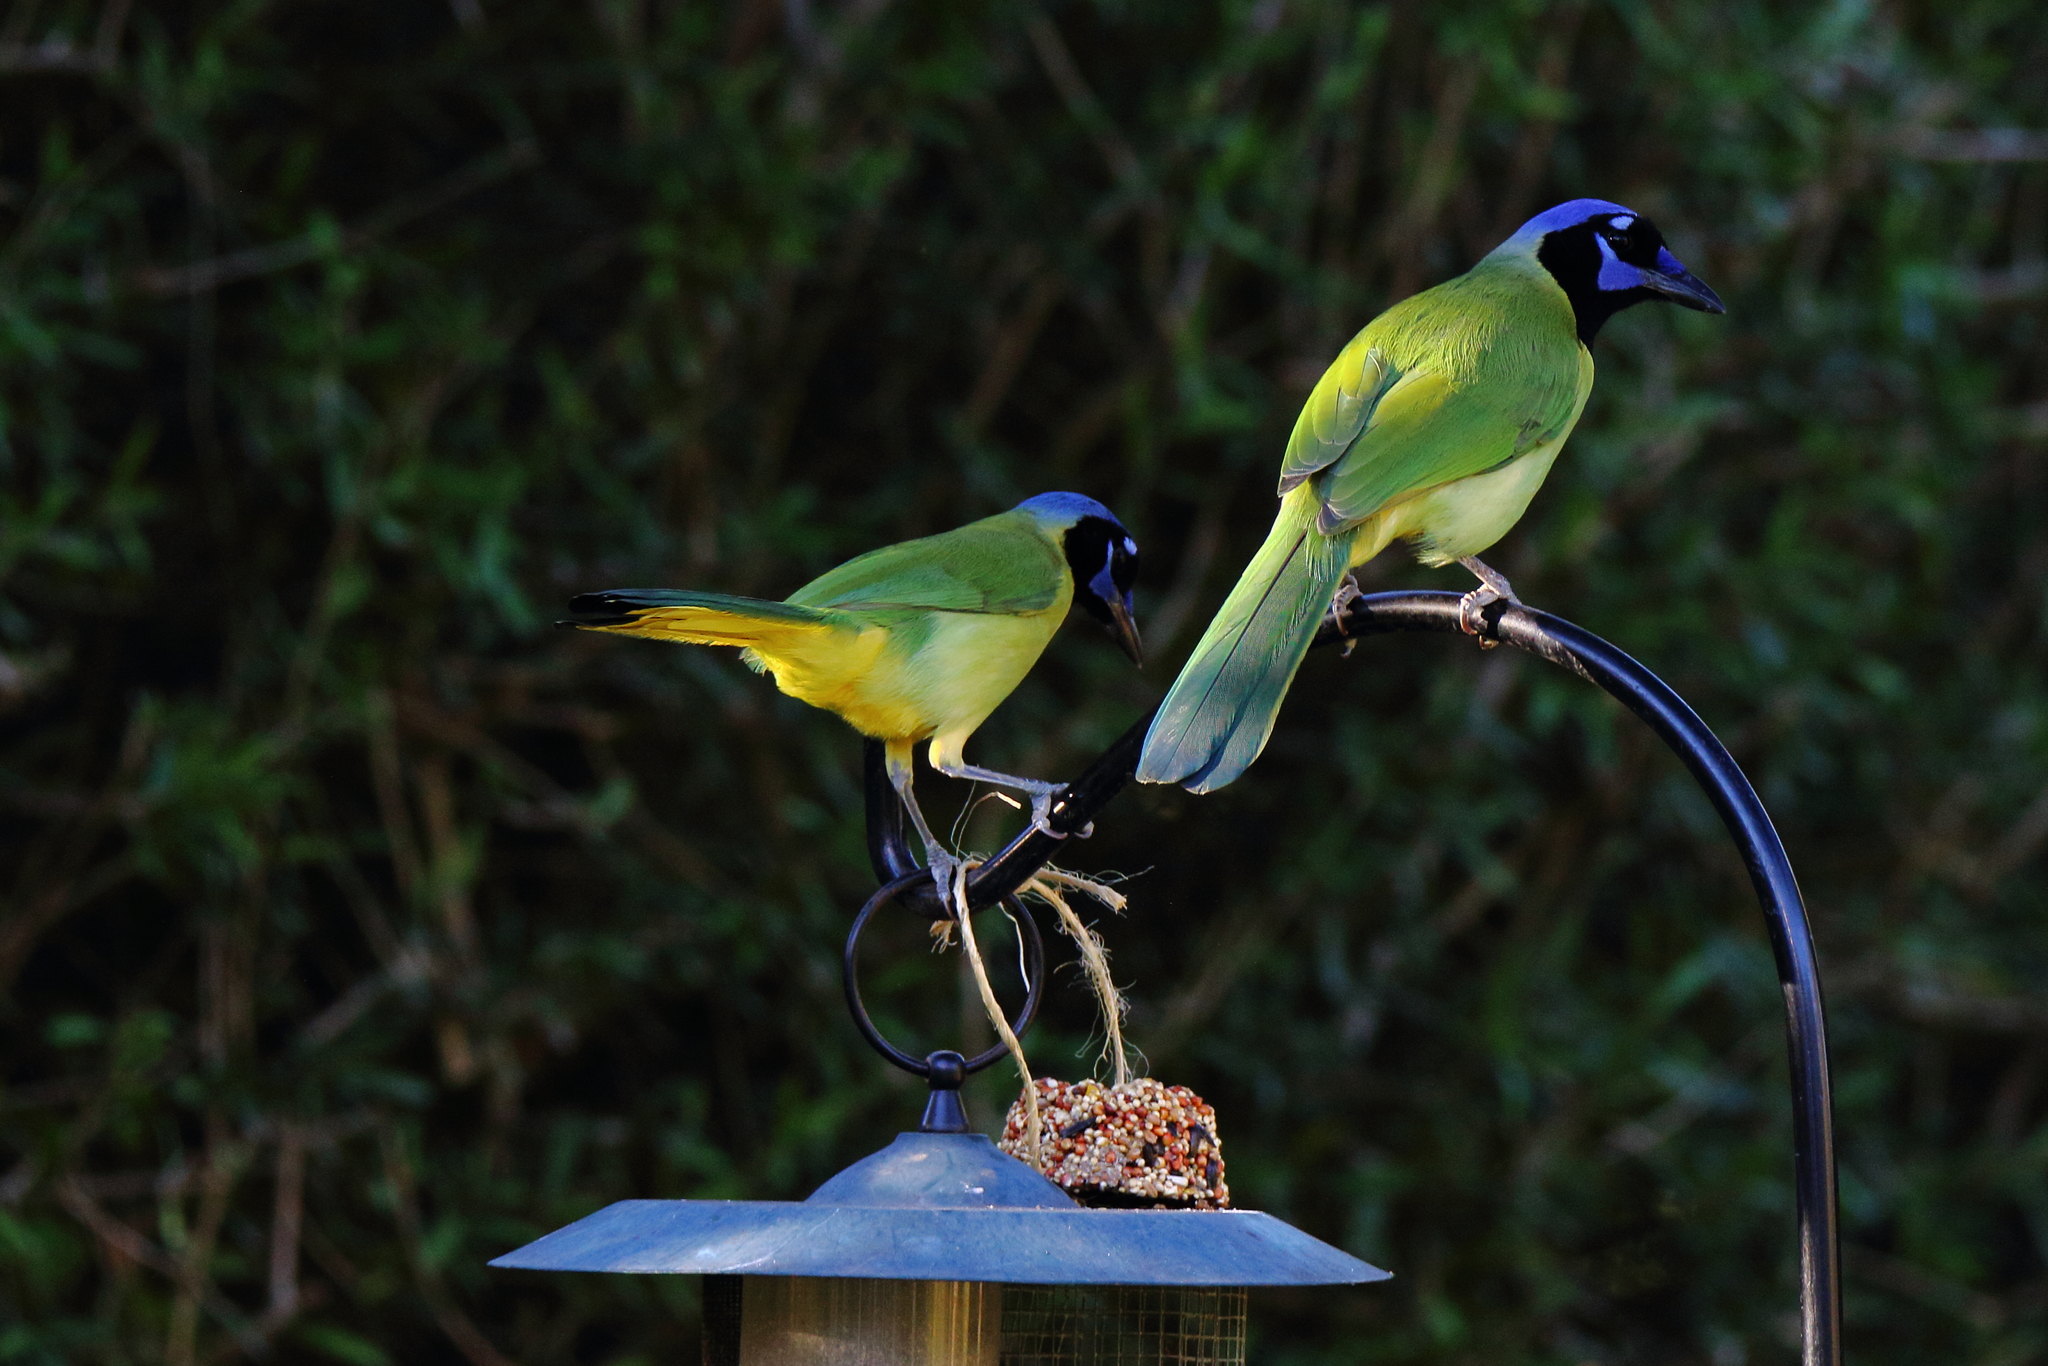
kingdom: Animalia
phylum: Chordata
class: Aves
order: Passeriformes
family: Corvidae
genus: Cyanocorax
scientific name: Cyanocorax yncas
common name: Green jay
